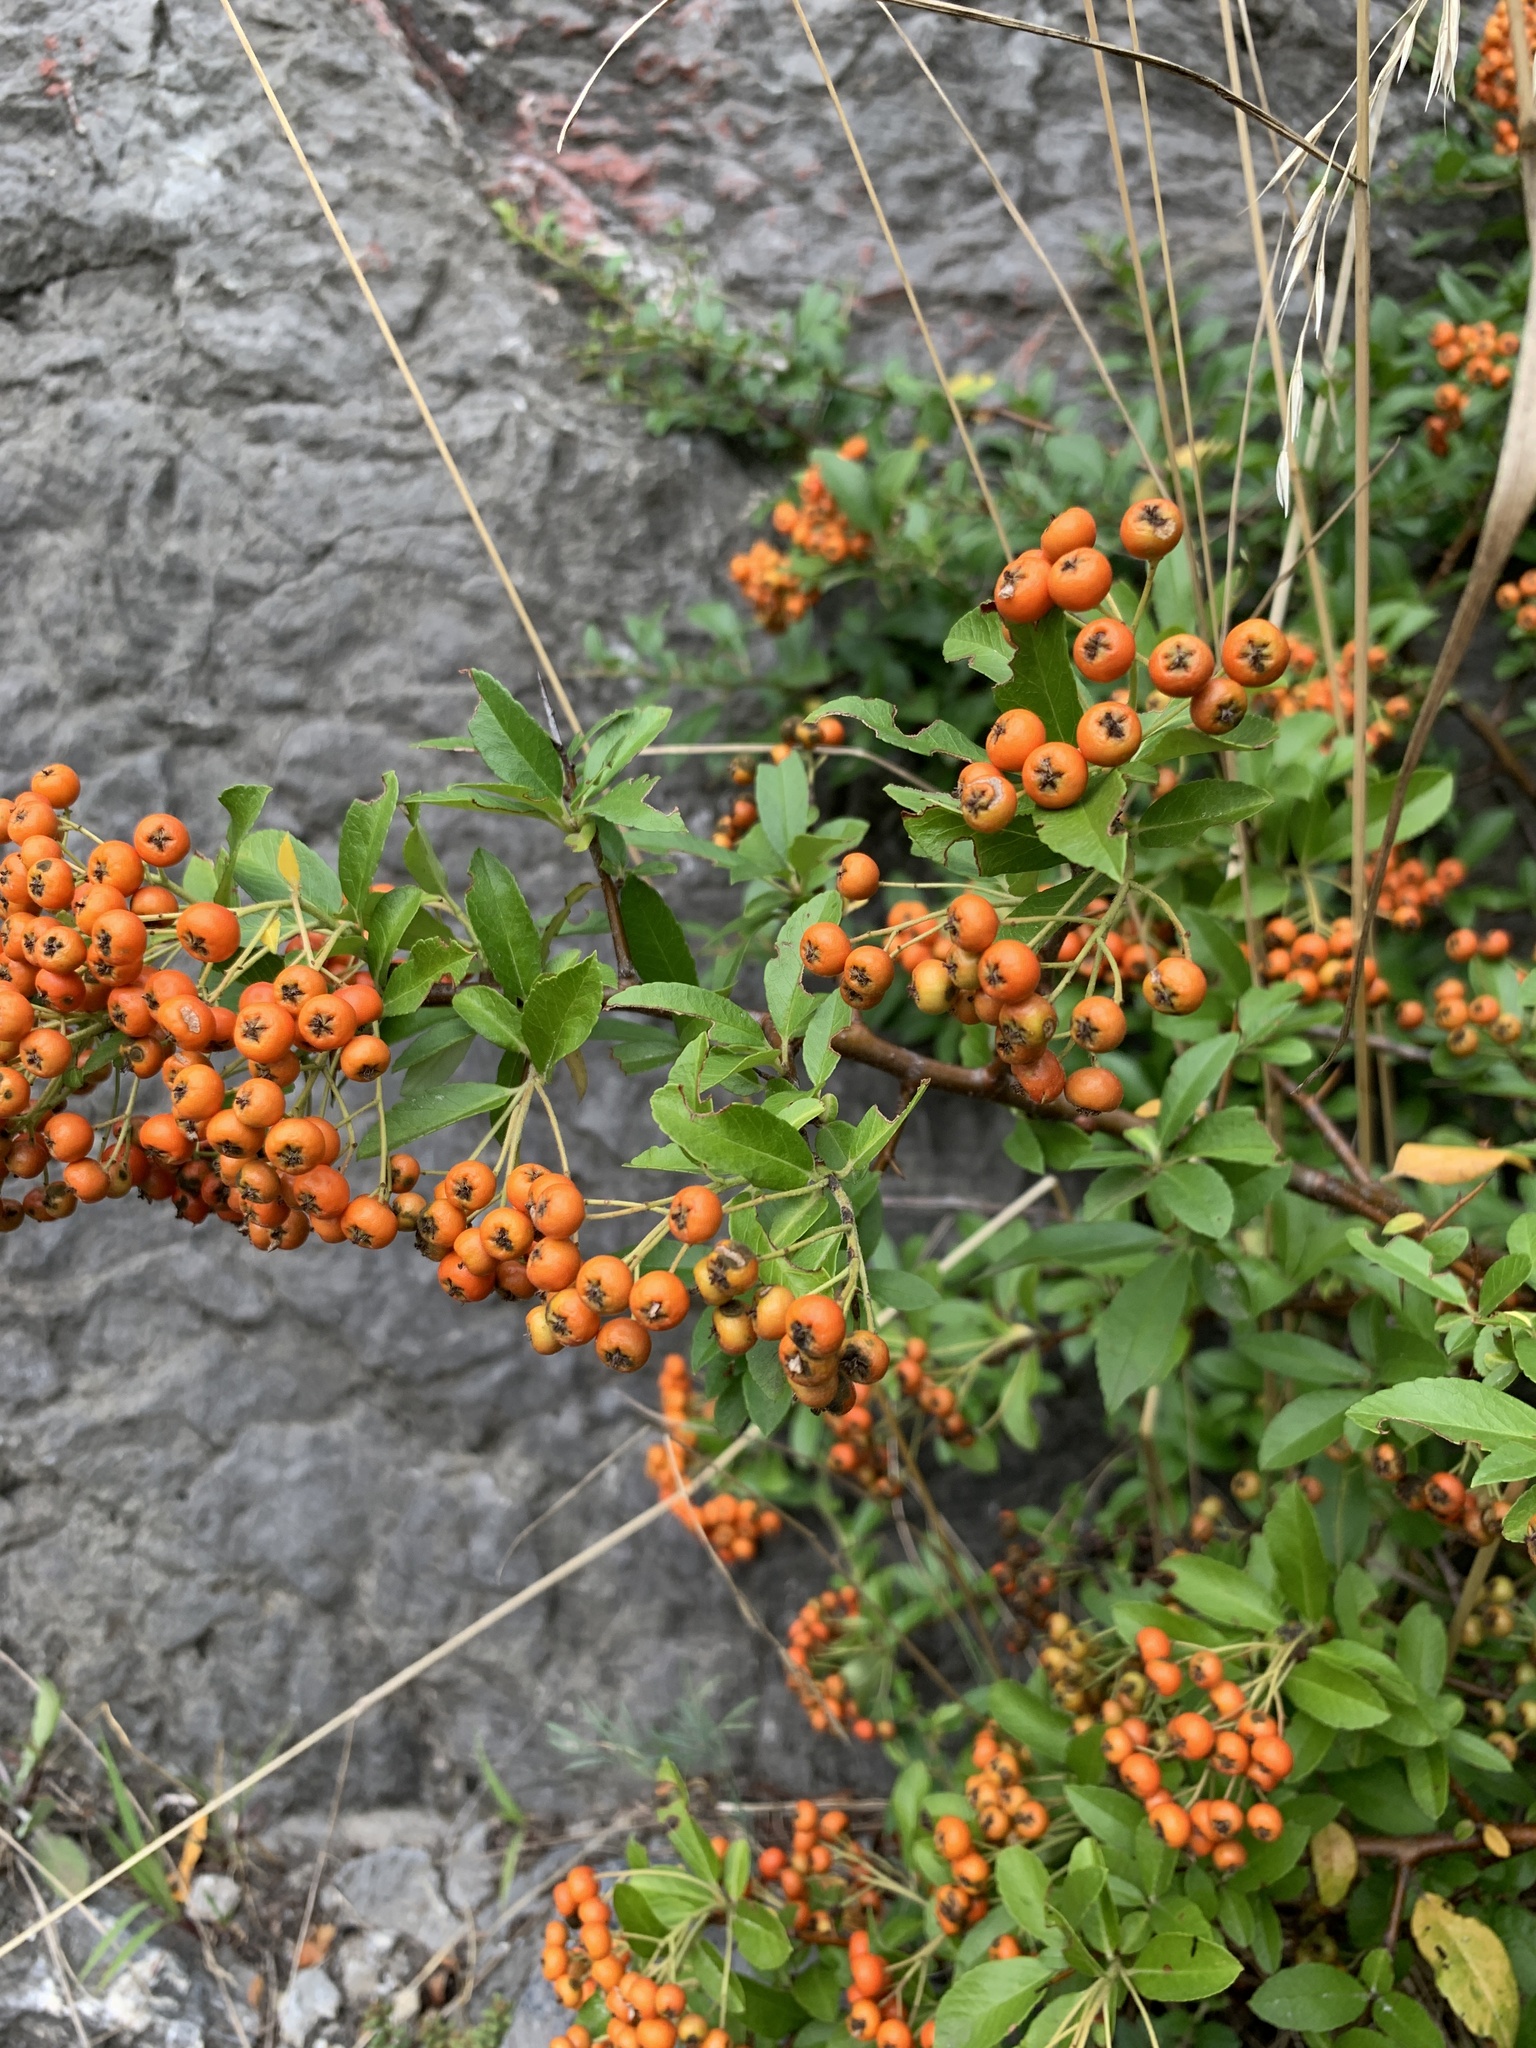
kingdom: Plantae
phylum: Tracheophyta
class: Magnoliopsida
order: Rosales
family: Rosaceae
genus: Pyracantha
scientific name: Pyracantha coccinea
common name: Firethorn
